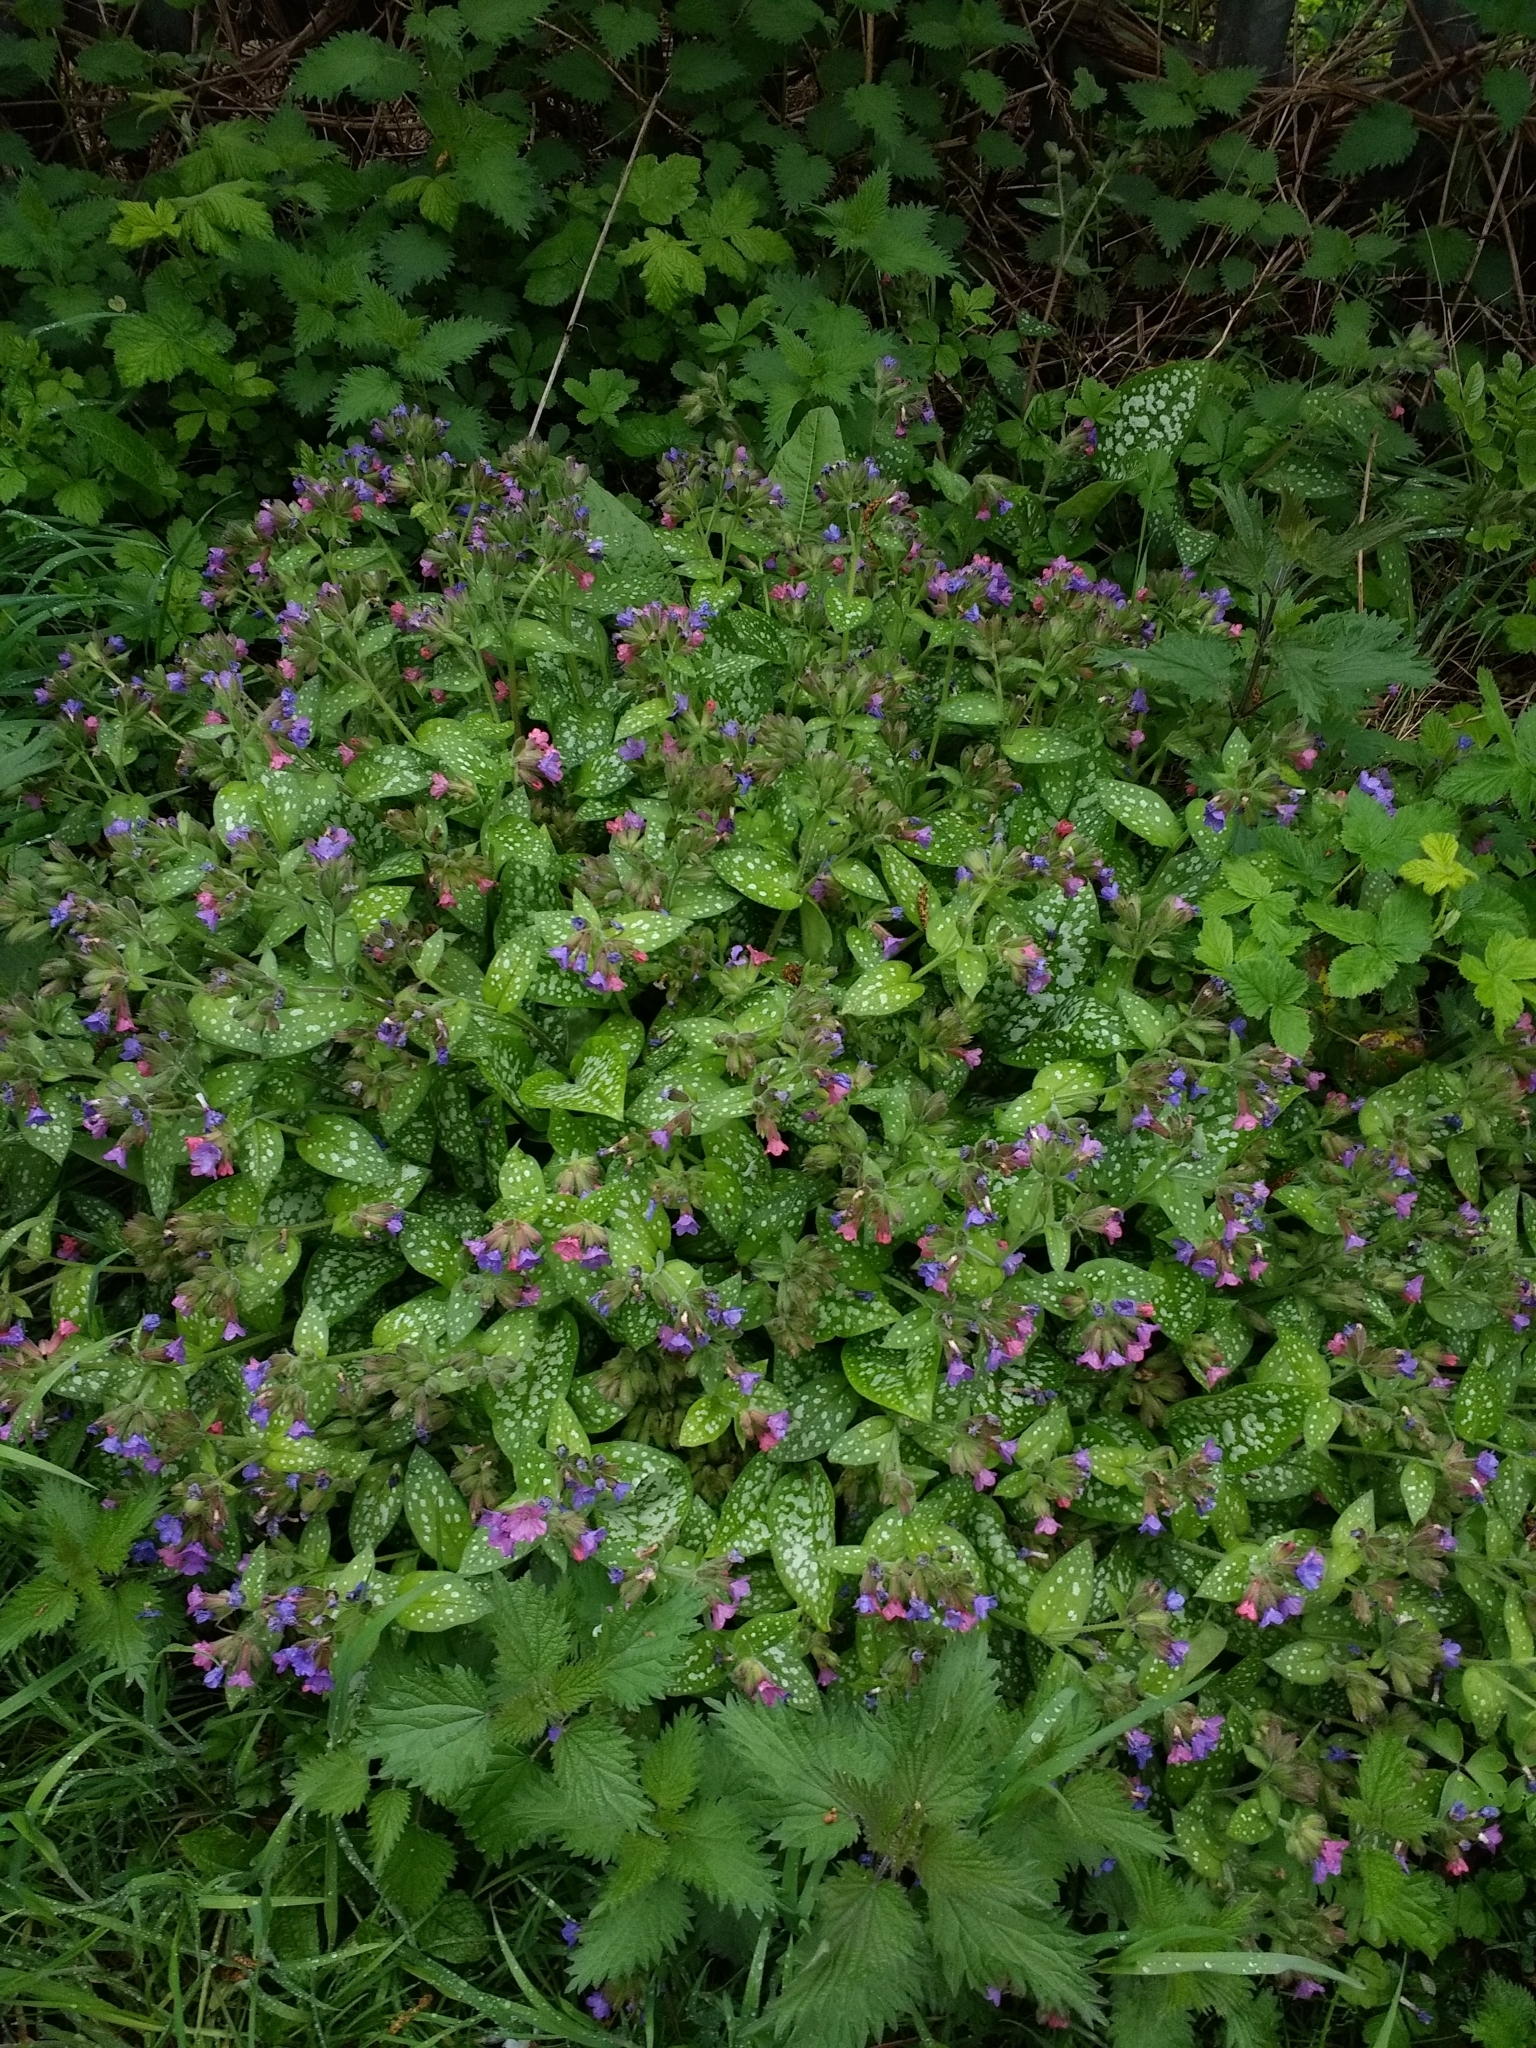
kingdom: Plantae
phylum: Tracheophyta
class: Magnoliopsida
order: Boraginales
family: Boraginaceae
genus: Pulmonaria
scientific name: Pulmonaria officinalis
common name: Lungwort
